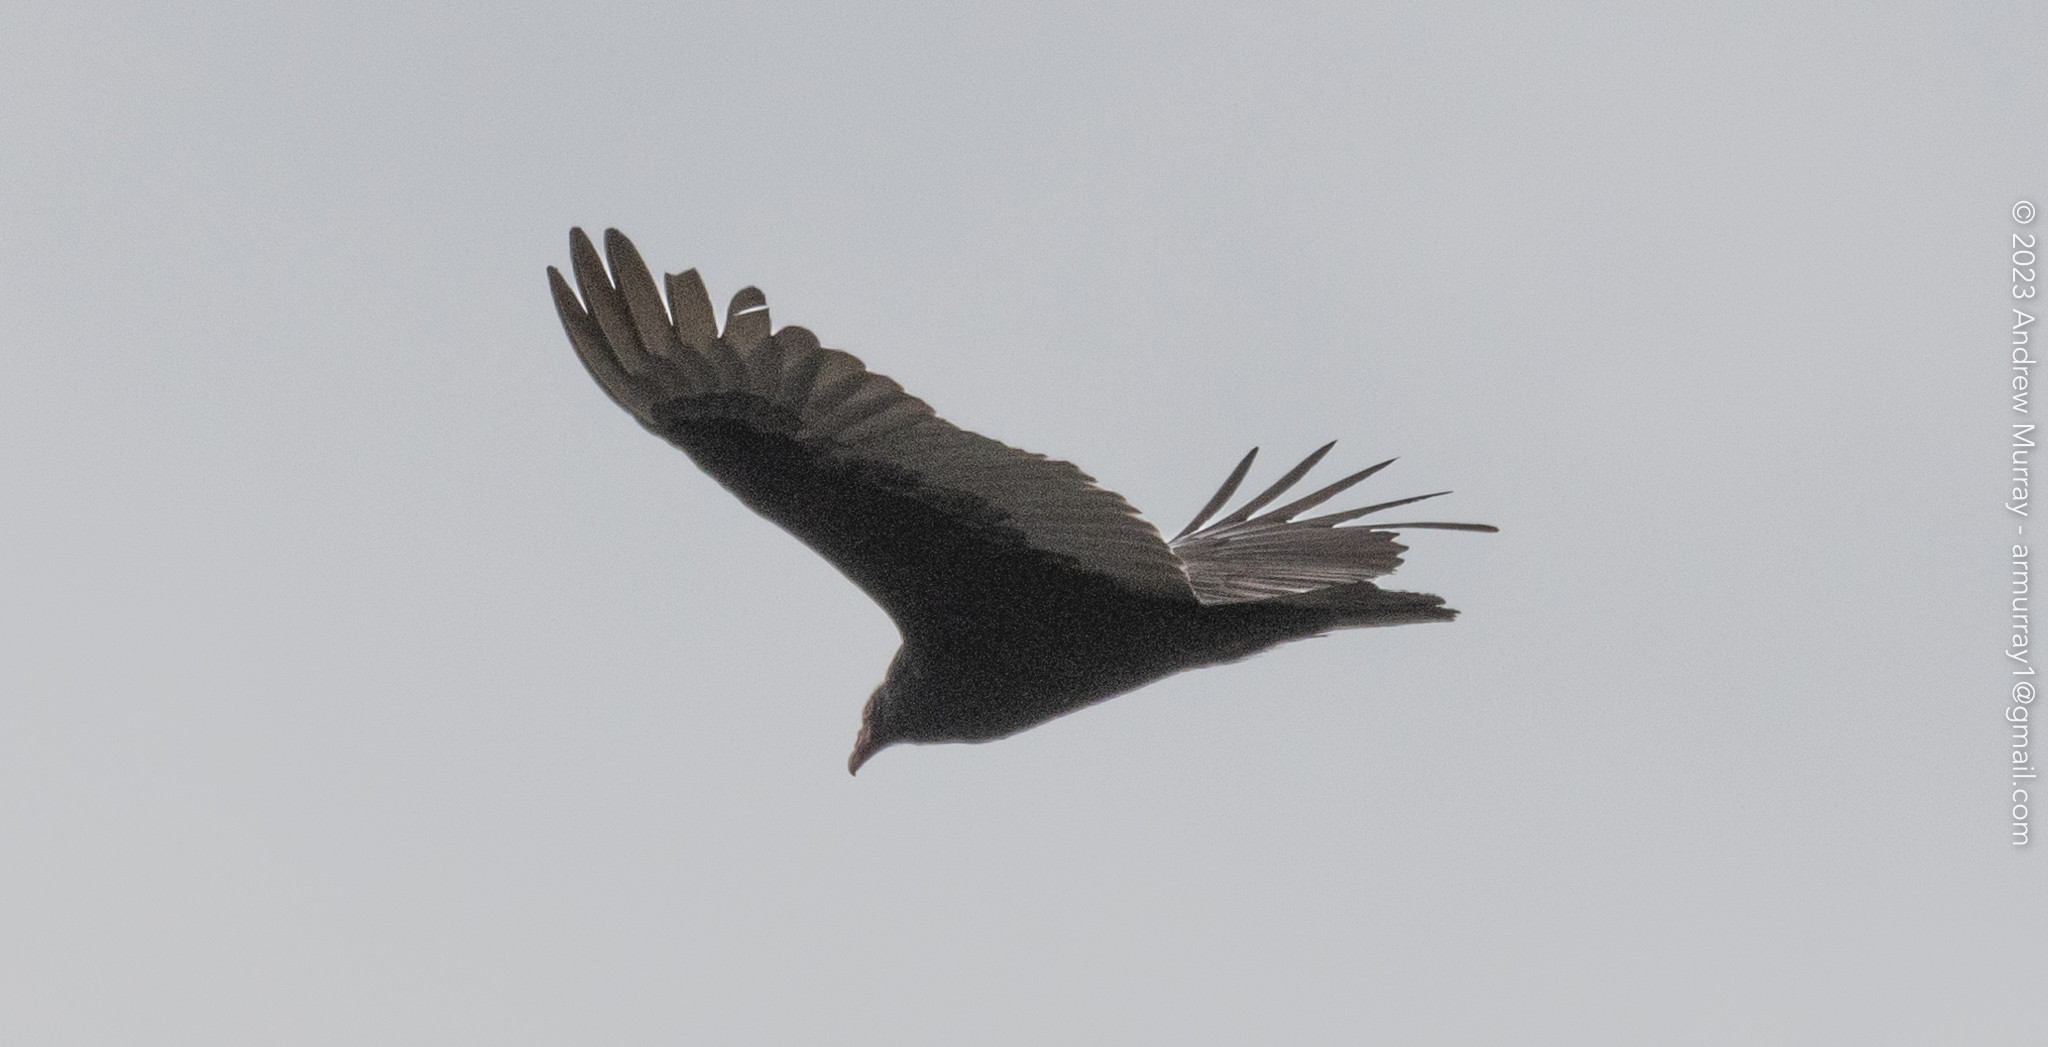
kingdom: Animalia
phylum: Chordata
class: Aves
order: Accipitriformes
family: Cathartidae
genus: Cathartes
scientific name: Cathartes aura
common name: Turkey vulture
